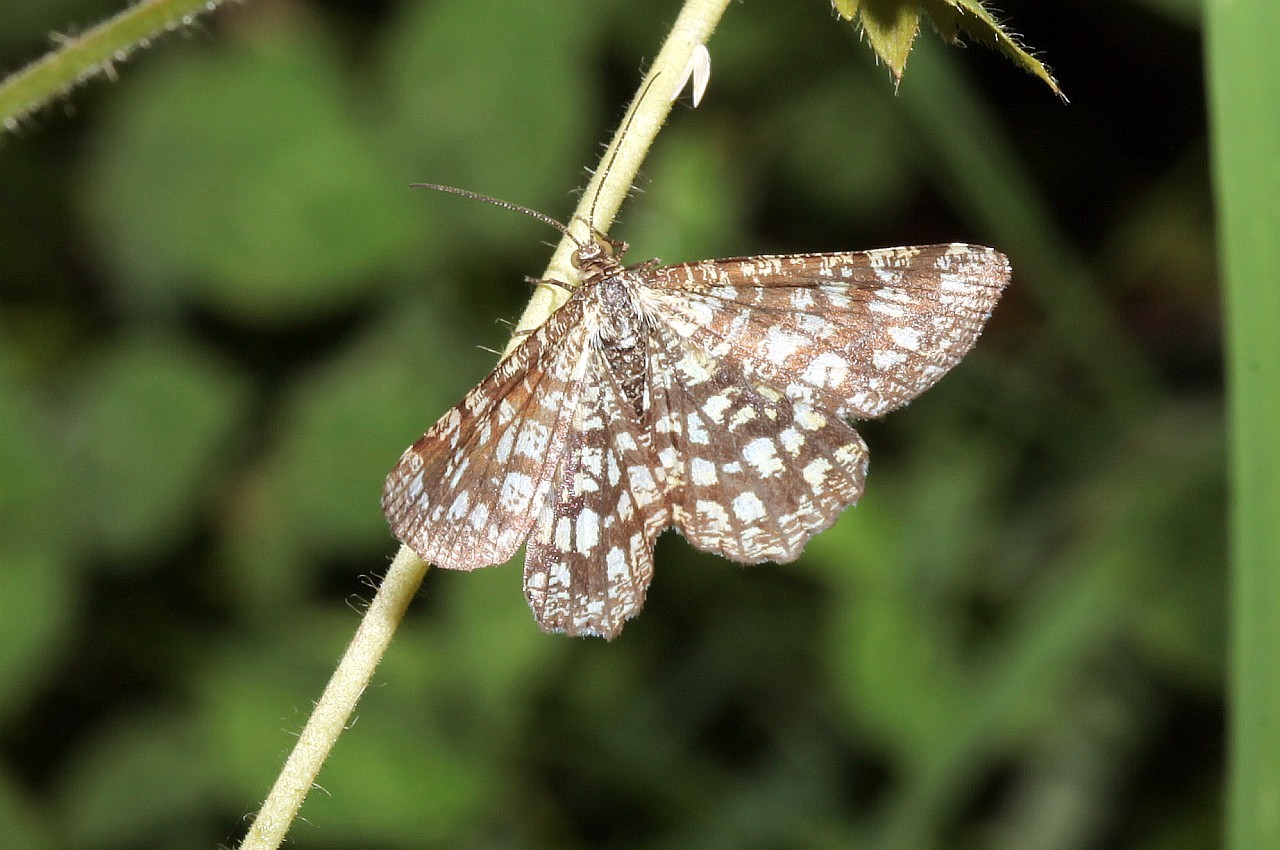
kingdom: Animalia
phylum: Arthropoda
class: Insecta
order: Lepidoptera
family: Geometridae
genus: Chiasmia
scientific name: Chiasmia clathrata
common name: Latticed heath
